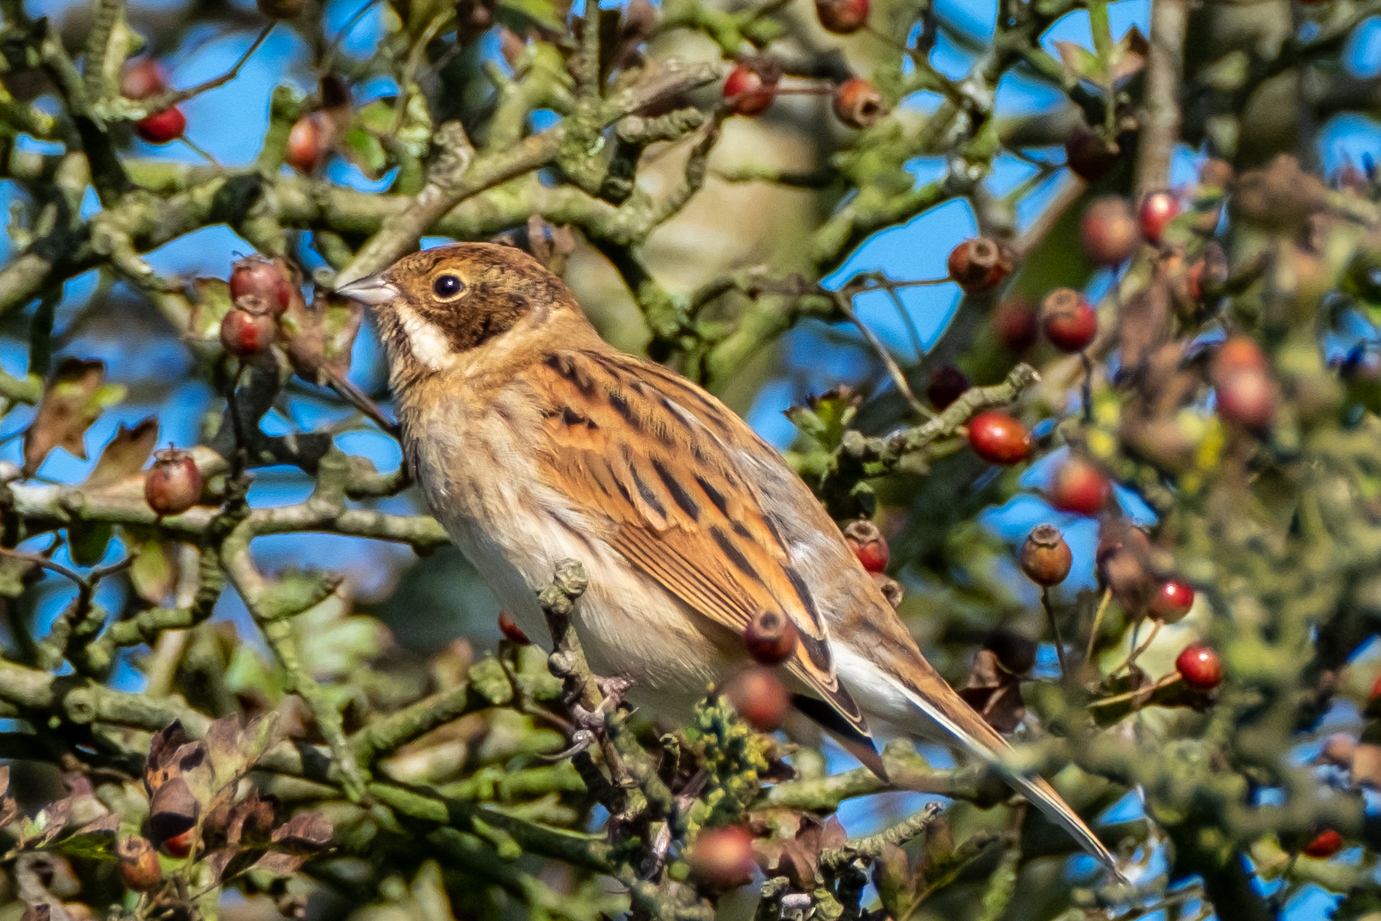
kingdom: Animalia
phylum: Chordata
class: Aves
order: Passeriformes
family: Emberizidae
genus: Emberiza
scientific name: Emberiza schoeniclus
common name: Reed bunting
